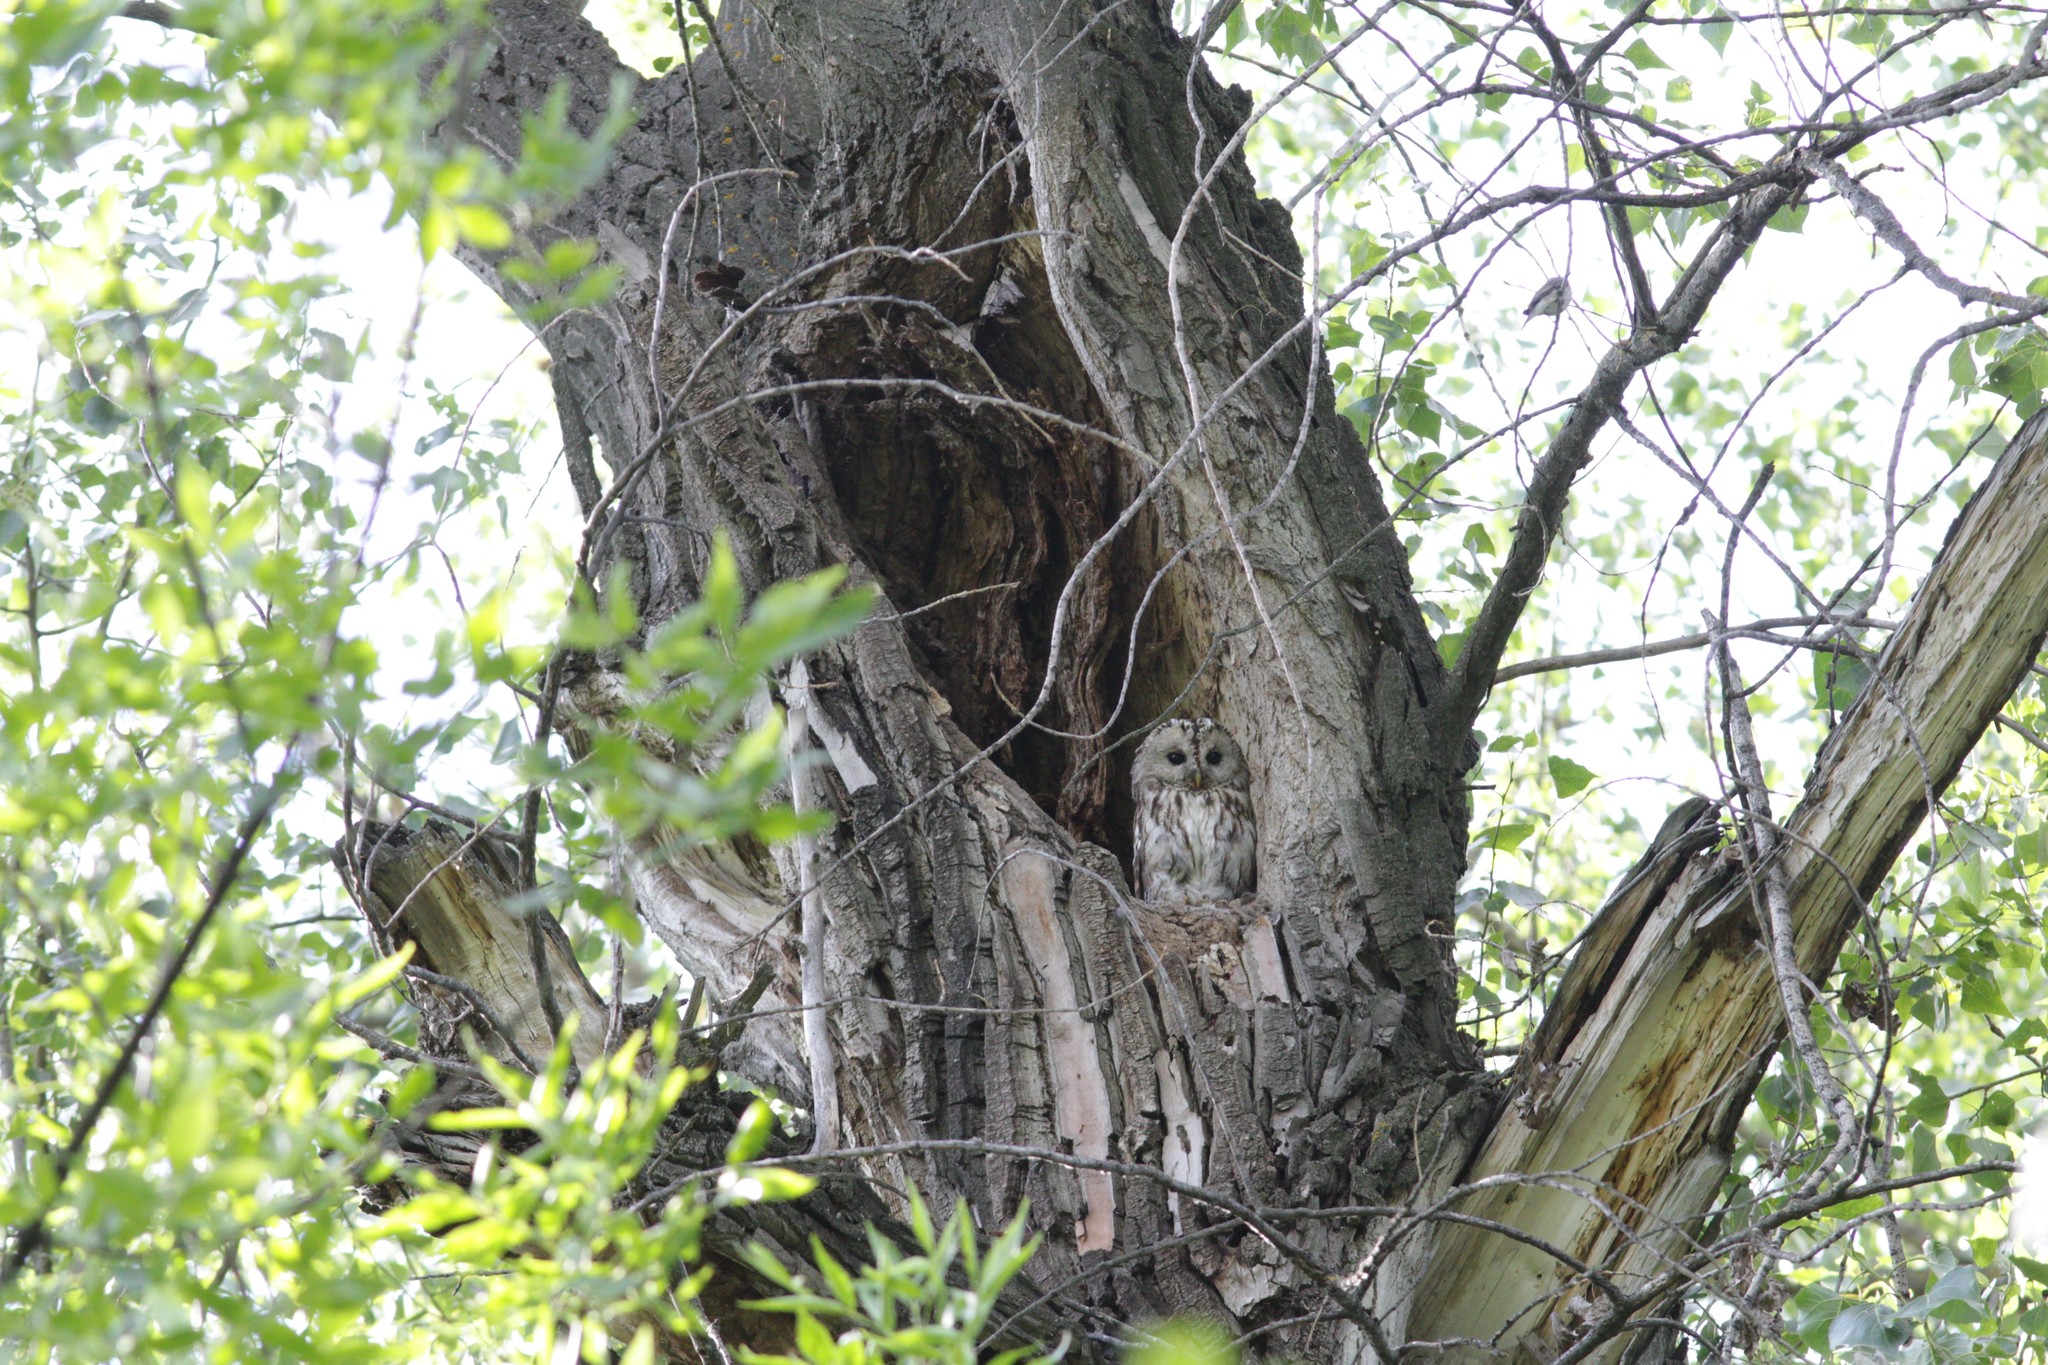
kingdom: Animalia
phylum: Chordata
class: Aves
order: Strigiformes
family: Strigidae
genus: Strix
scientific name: Strix aluco
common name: Tawny owl
